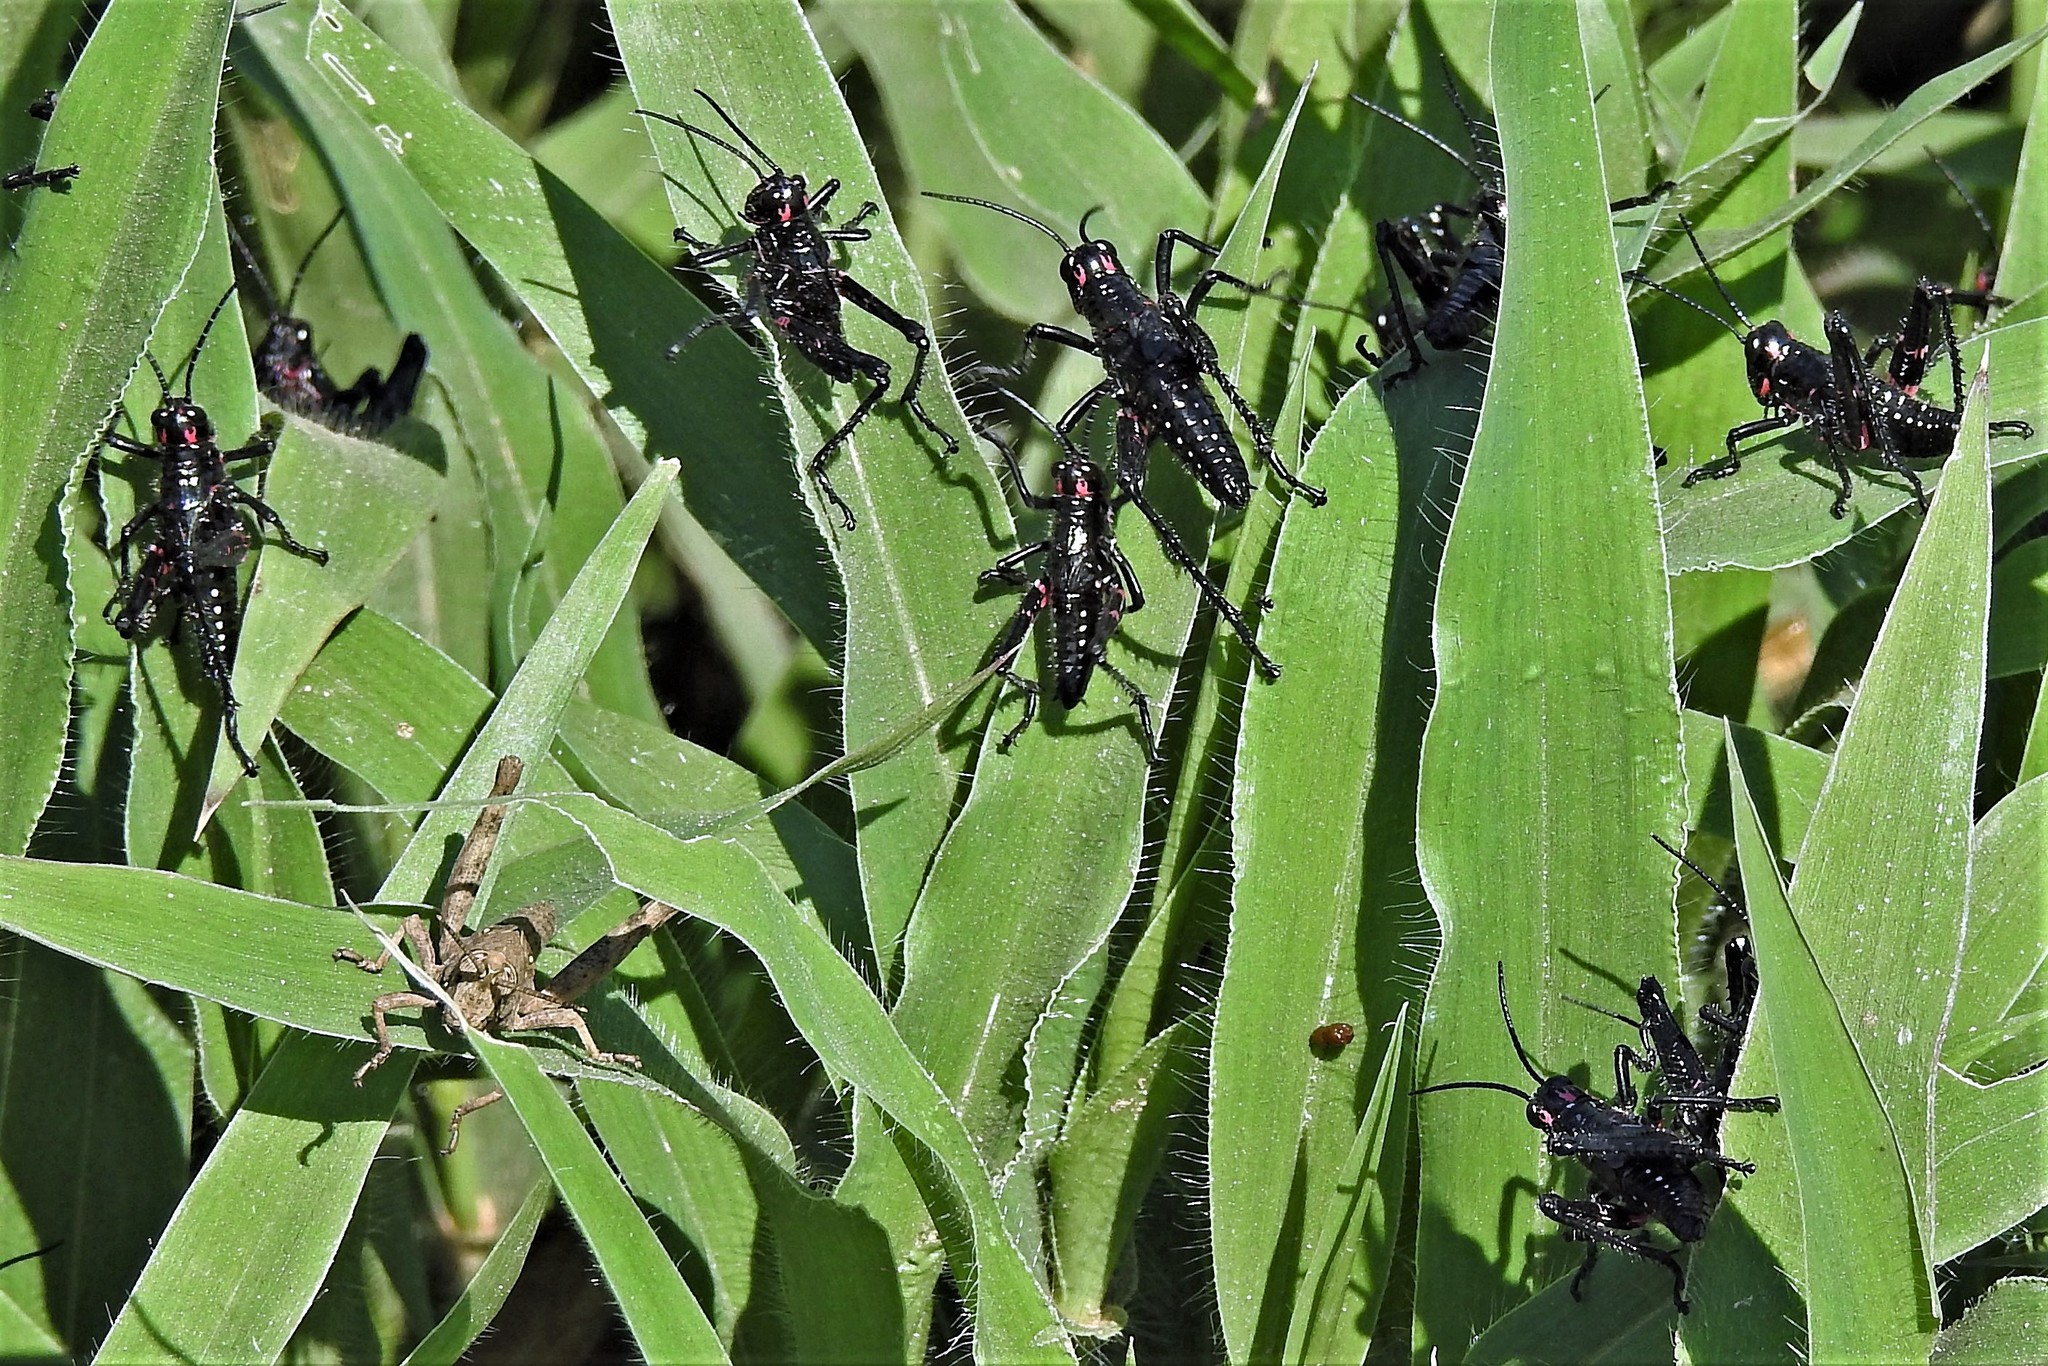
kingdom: Animalia
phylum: Arthropoda
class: Insecta
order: Orthoptera
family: Romaleidae
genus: Chromacris
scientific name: Chromacris speciosa
